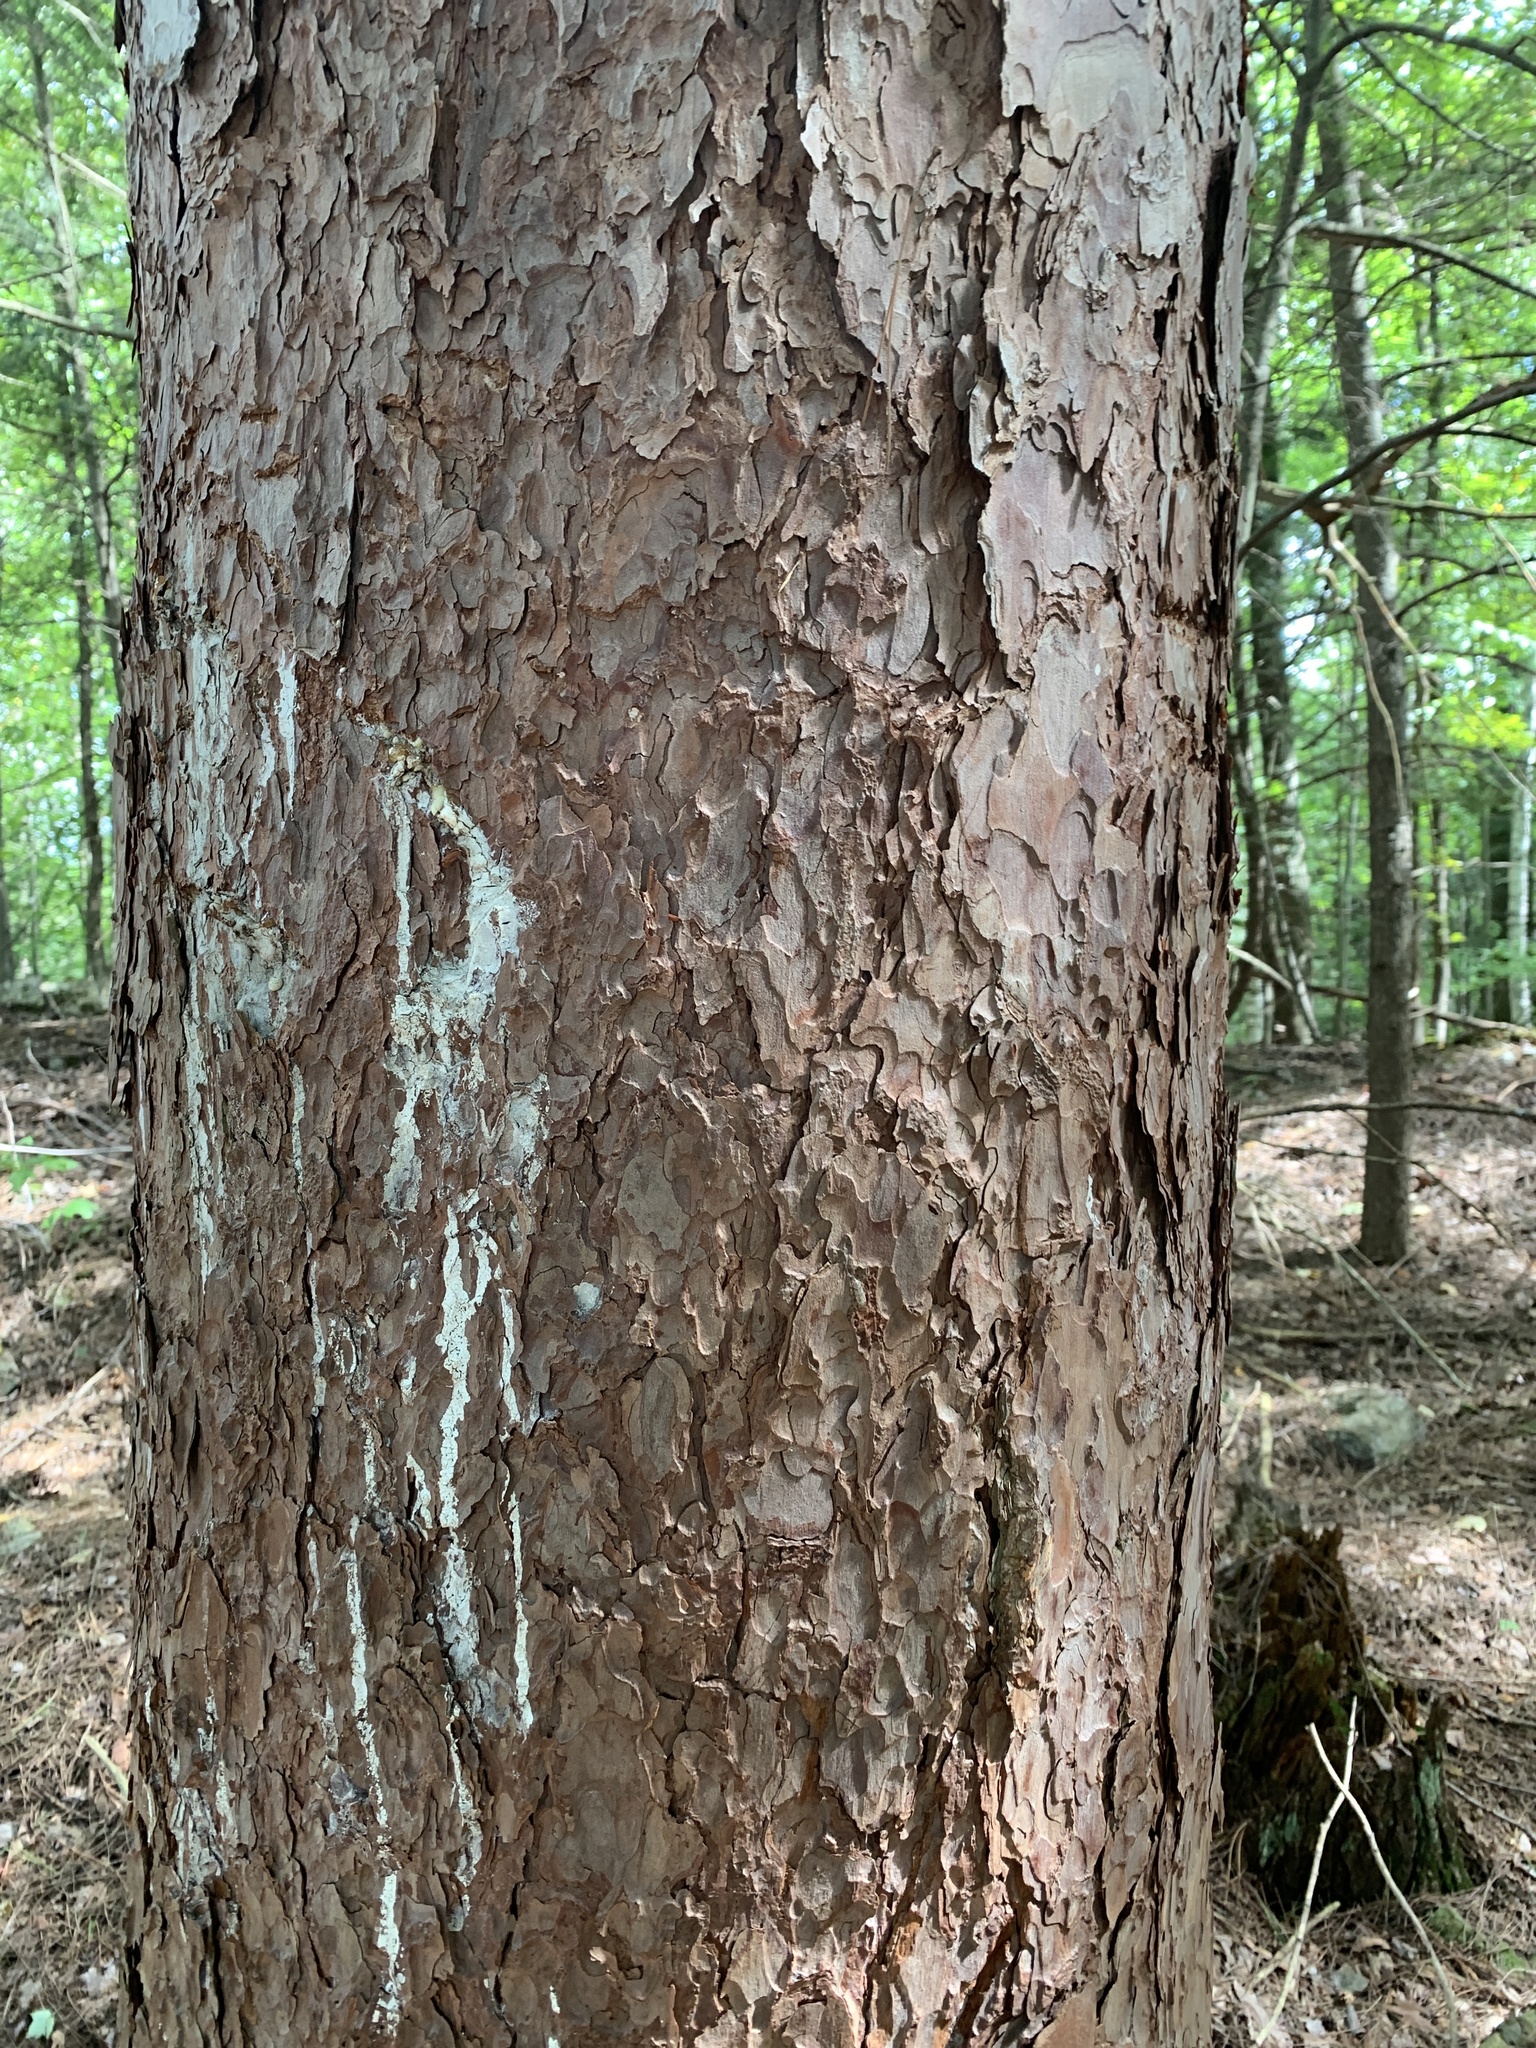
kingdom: Plantae
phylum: Tracheophyta
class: Pinopsida
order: Pinales
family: Pinaceae
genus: Pinus
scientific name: Pinus resinosa
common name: Norway pine
